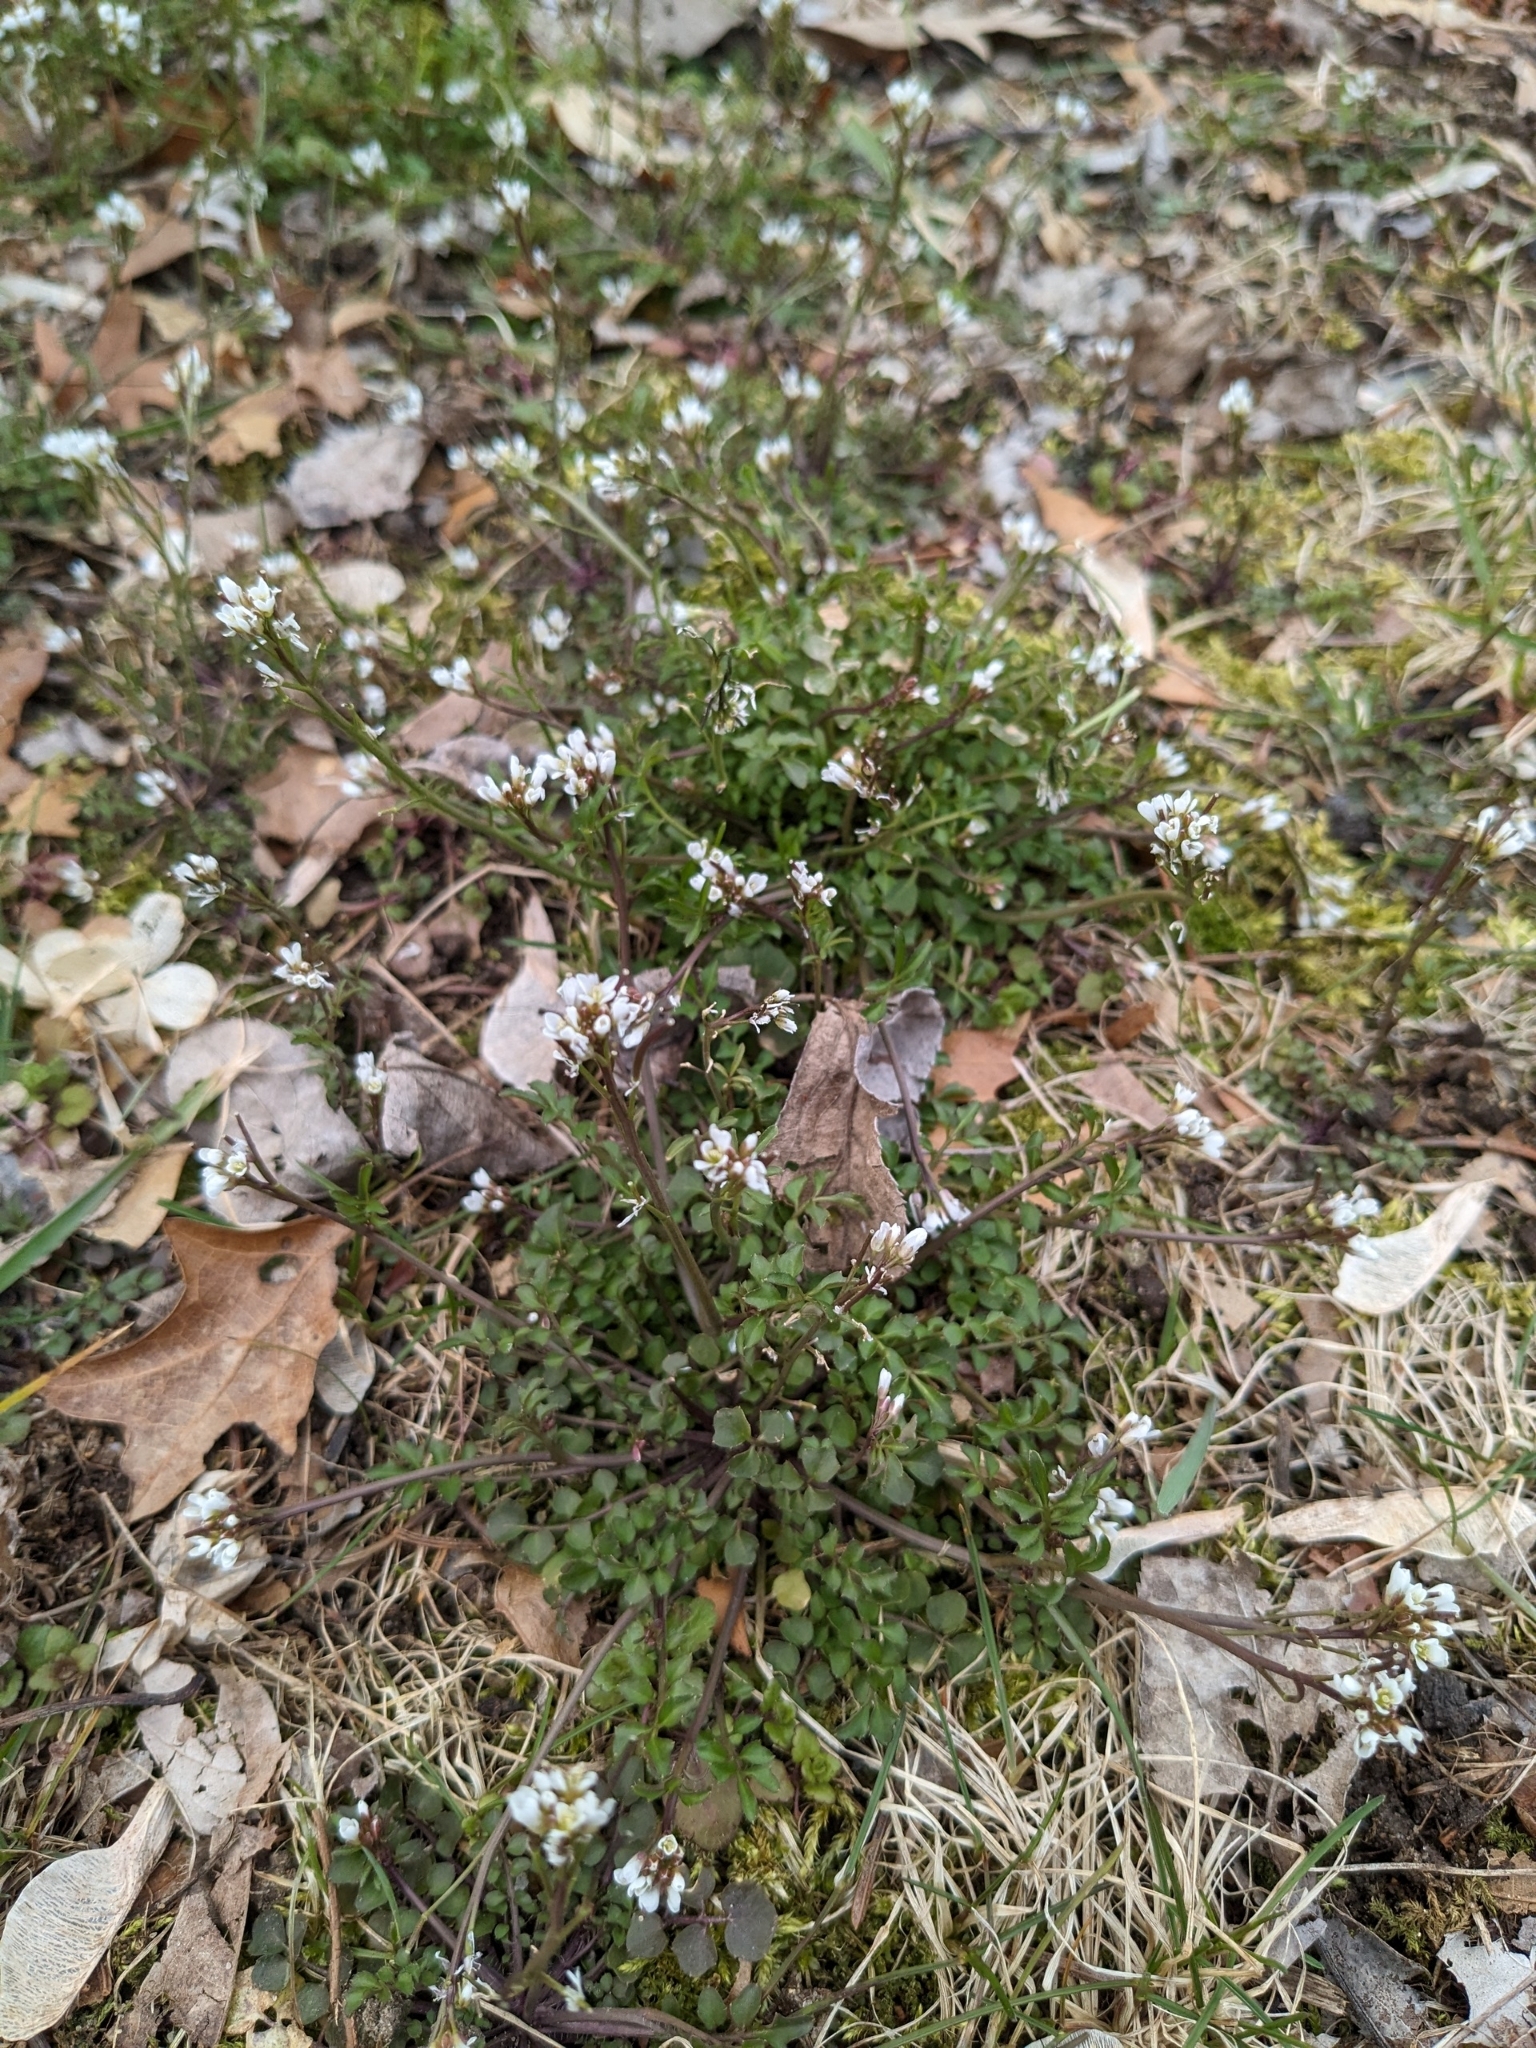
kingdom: Plantae
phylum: Tracheophyta
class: Magnoliopsida
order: Brassicales
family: Brassicaceae
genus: Cardamine
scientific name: Cardamine hirsuta
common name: Hairy bittercress
